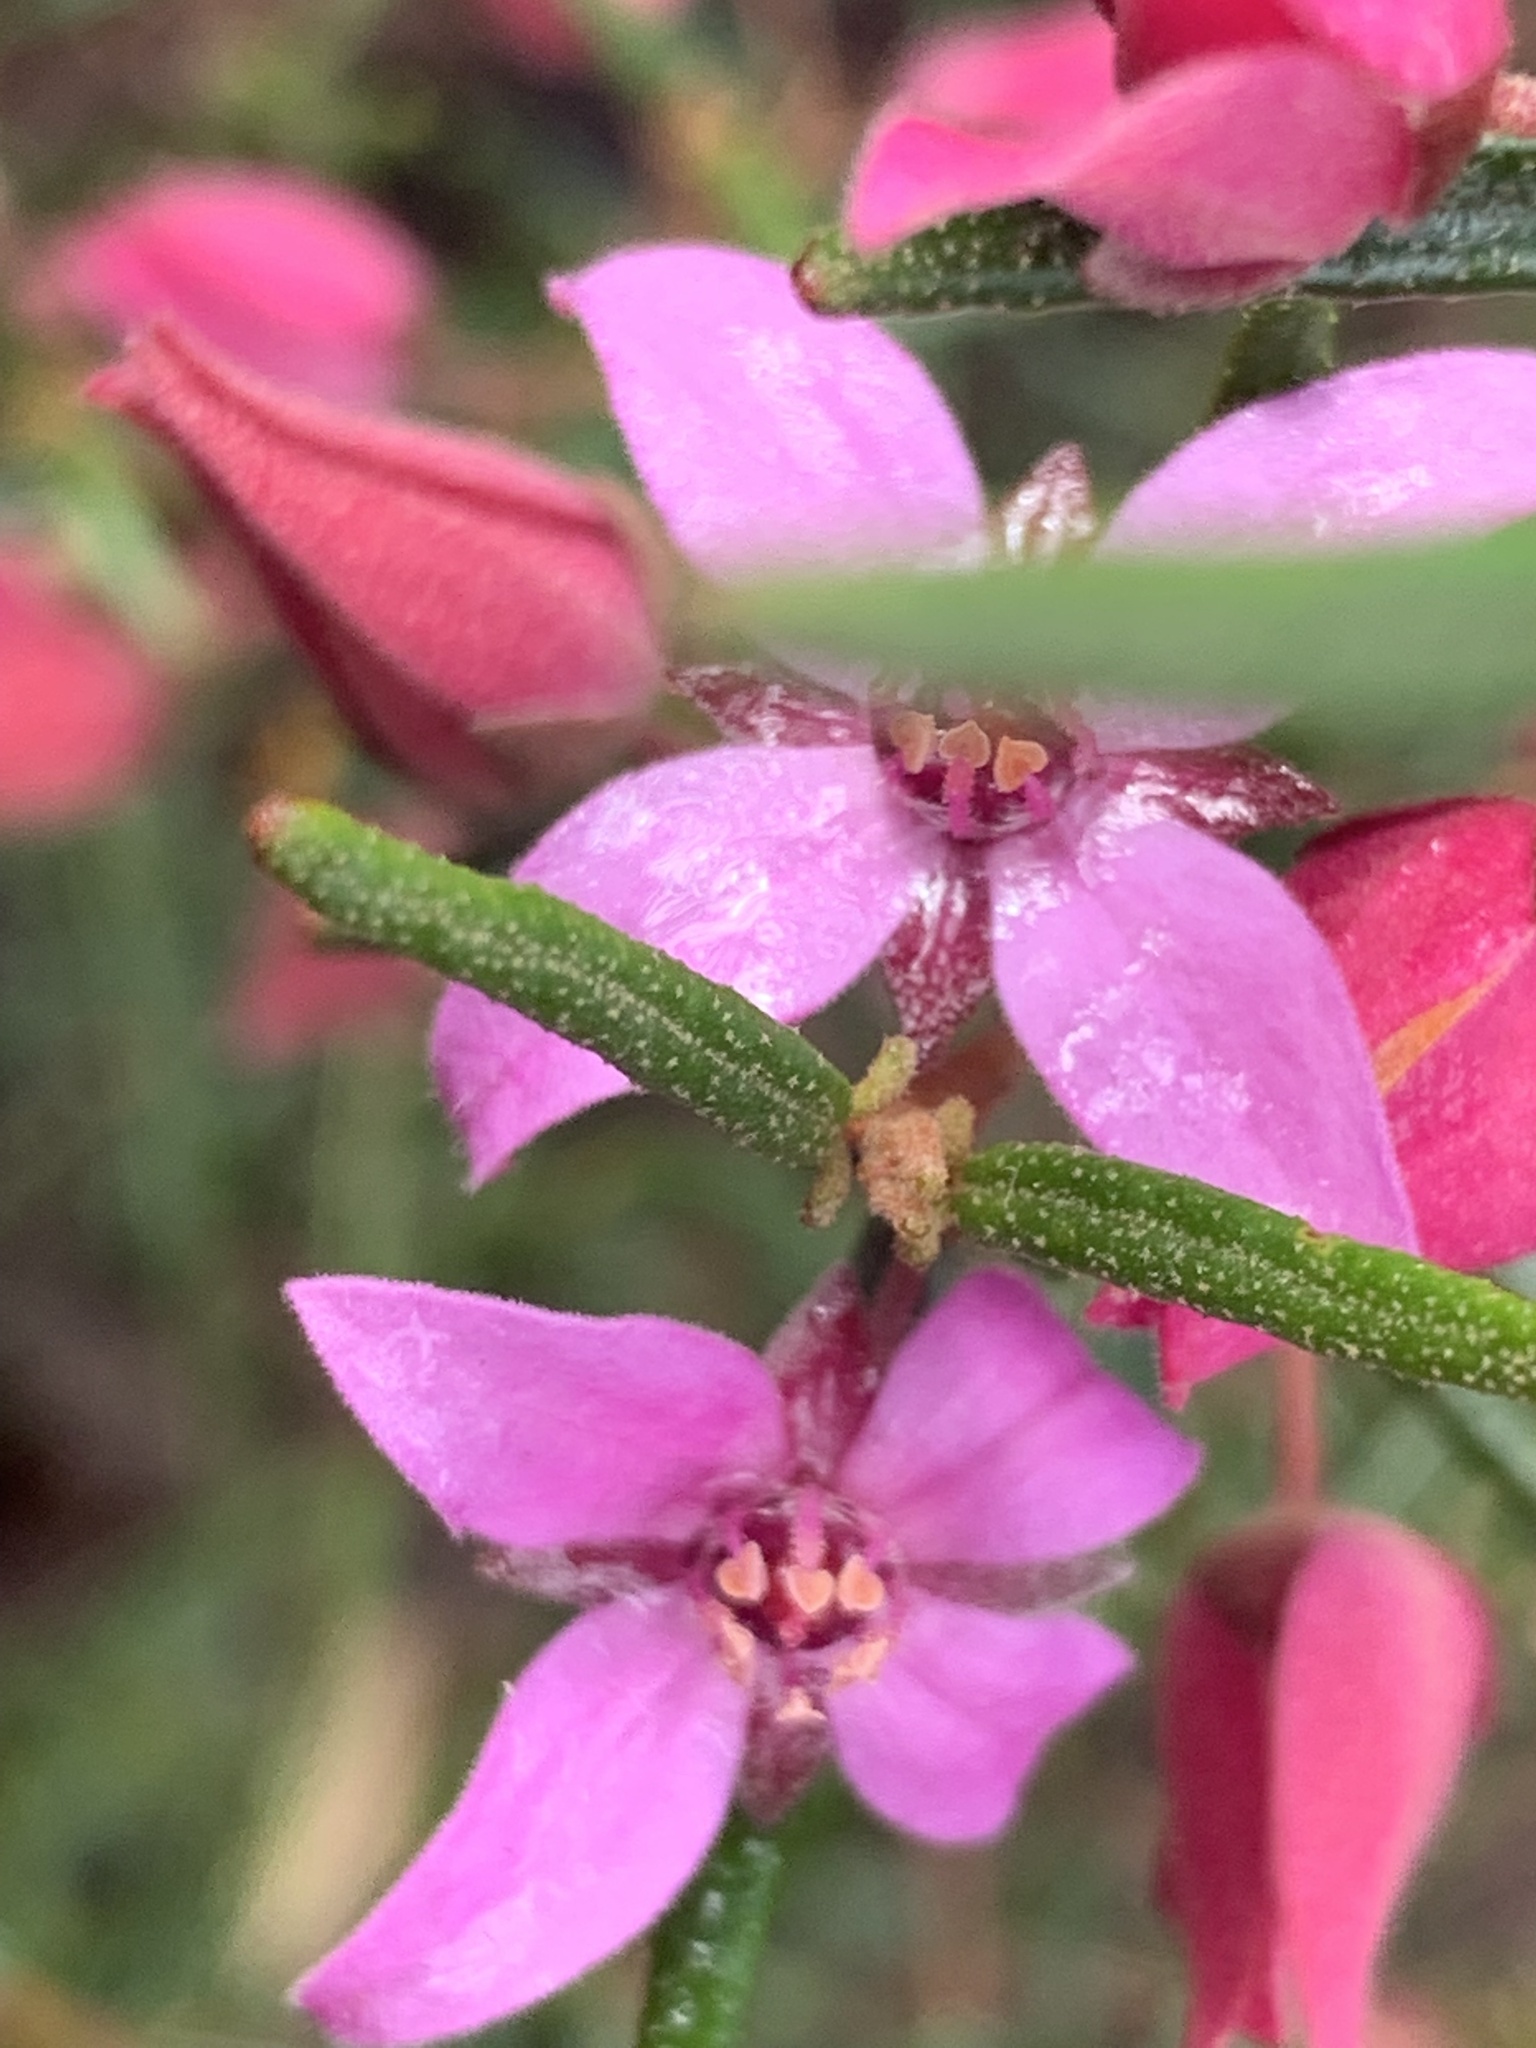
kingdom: Plantae
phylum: Tracheophyta
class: Magnoliopsida
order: Sapindales
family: Rutaceae
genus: Boronia
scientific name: Boronia ledifolia
